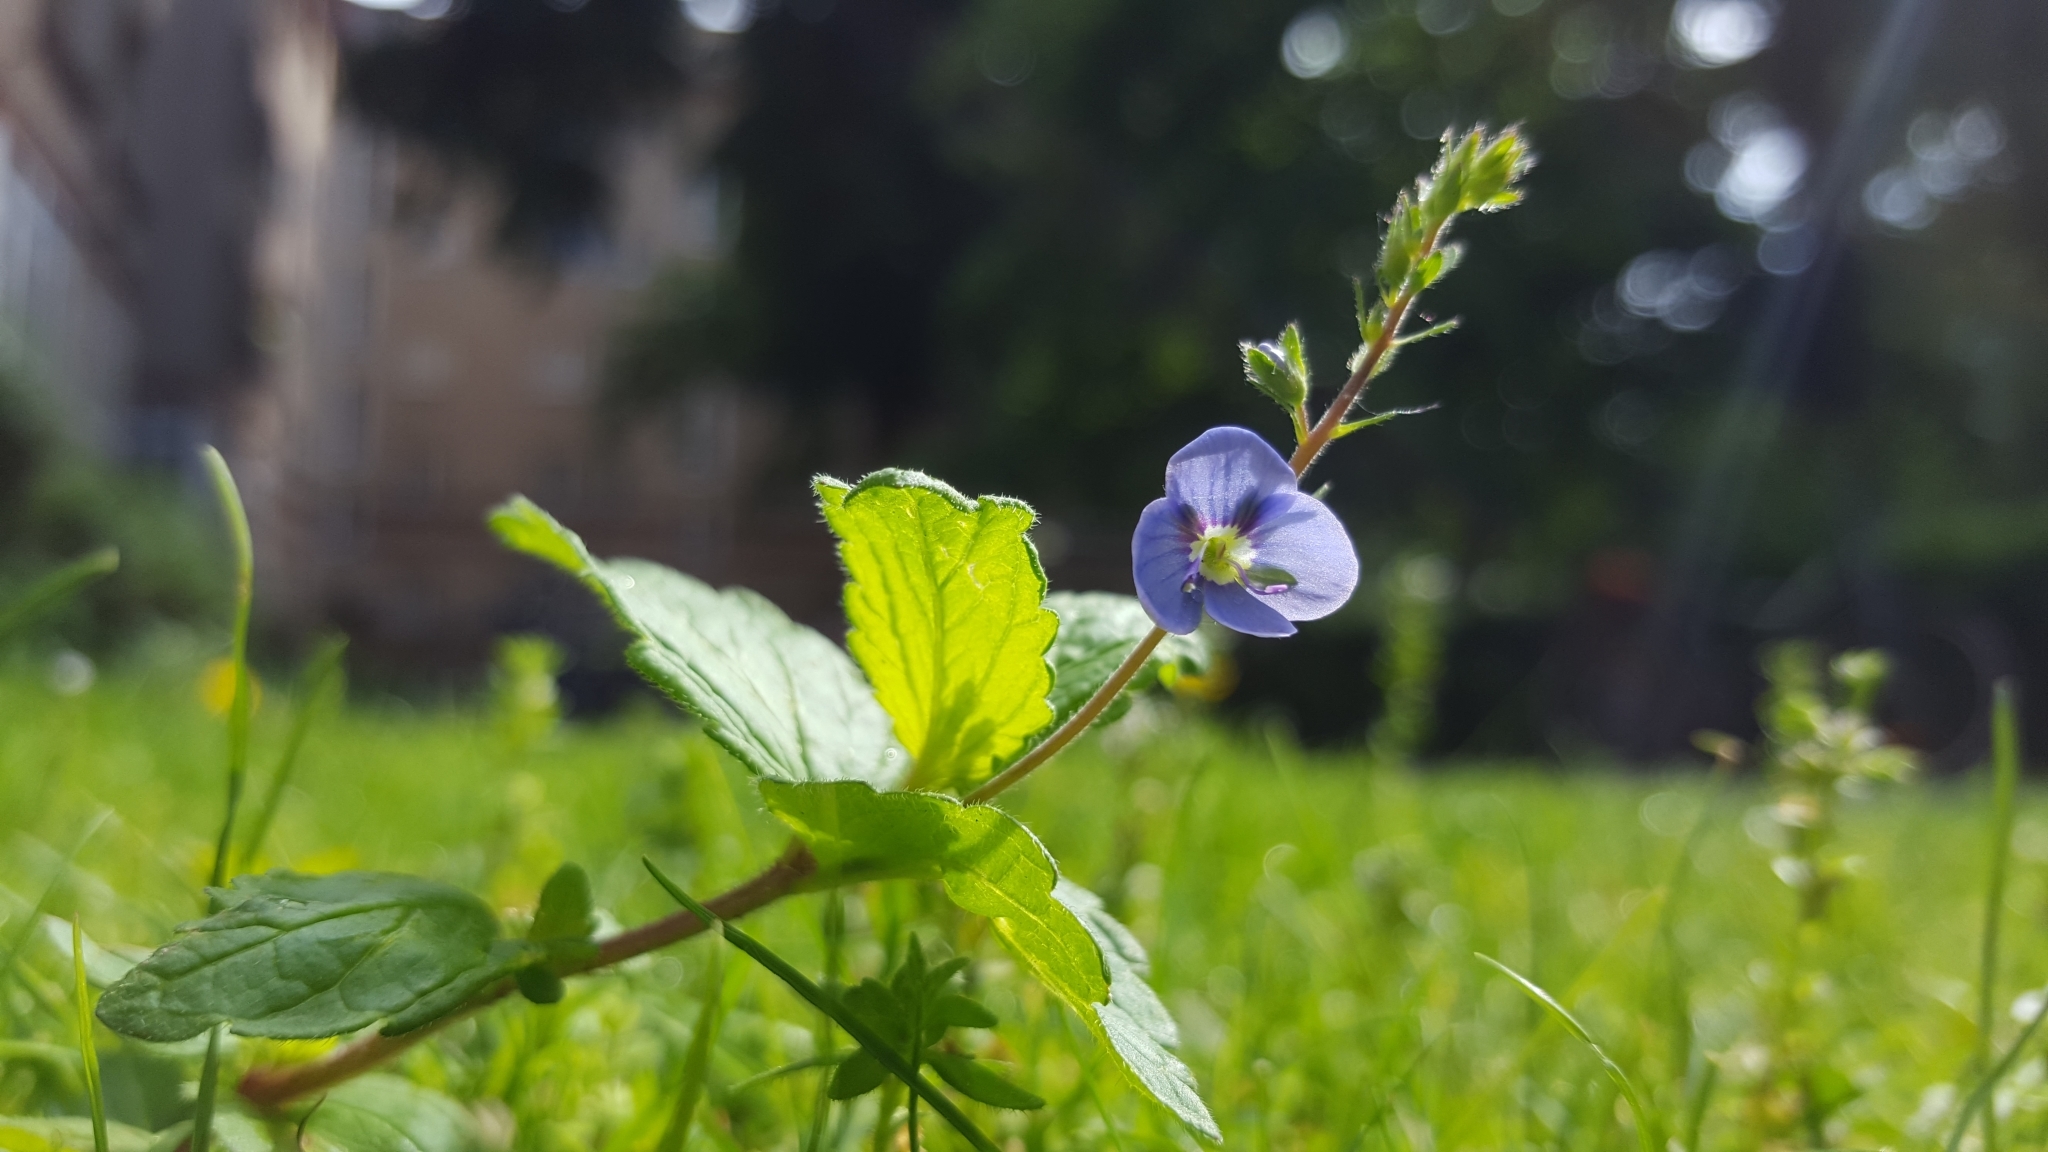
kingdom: Plantae
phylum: Tracheophyta
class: Magnoliopsida
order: Lamiales
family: Plantaginaceae
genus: Veronica
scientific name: Veronica chamaedrys
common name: Germander speedwell
